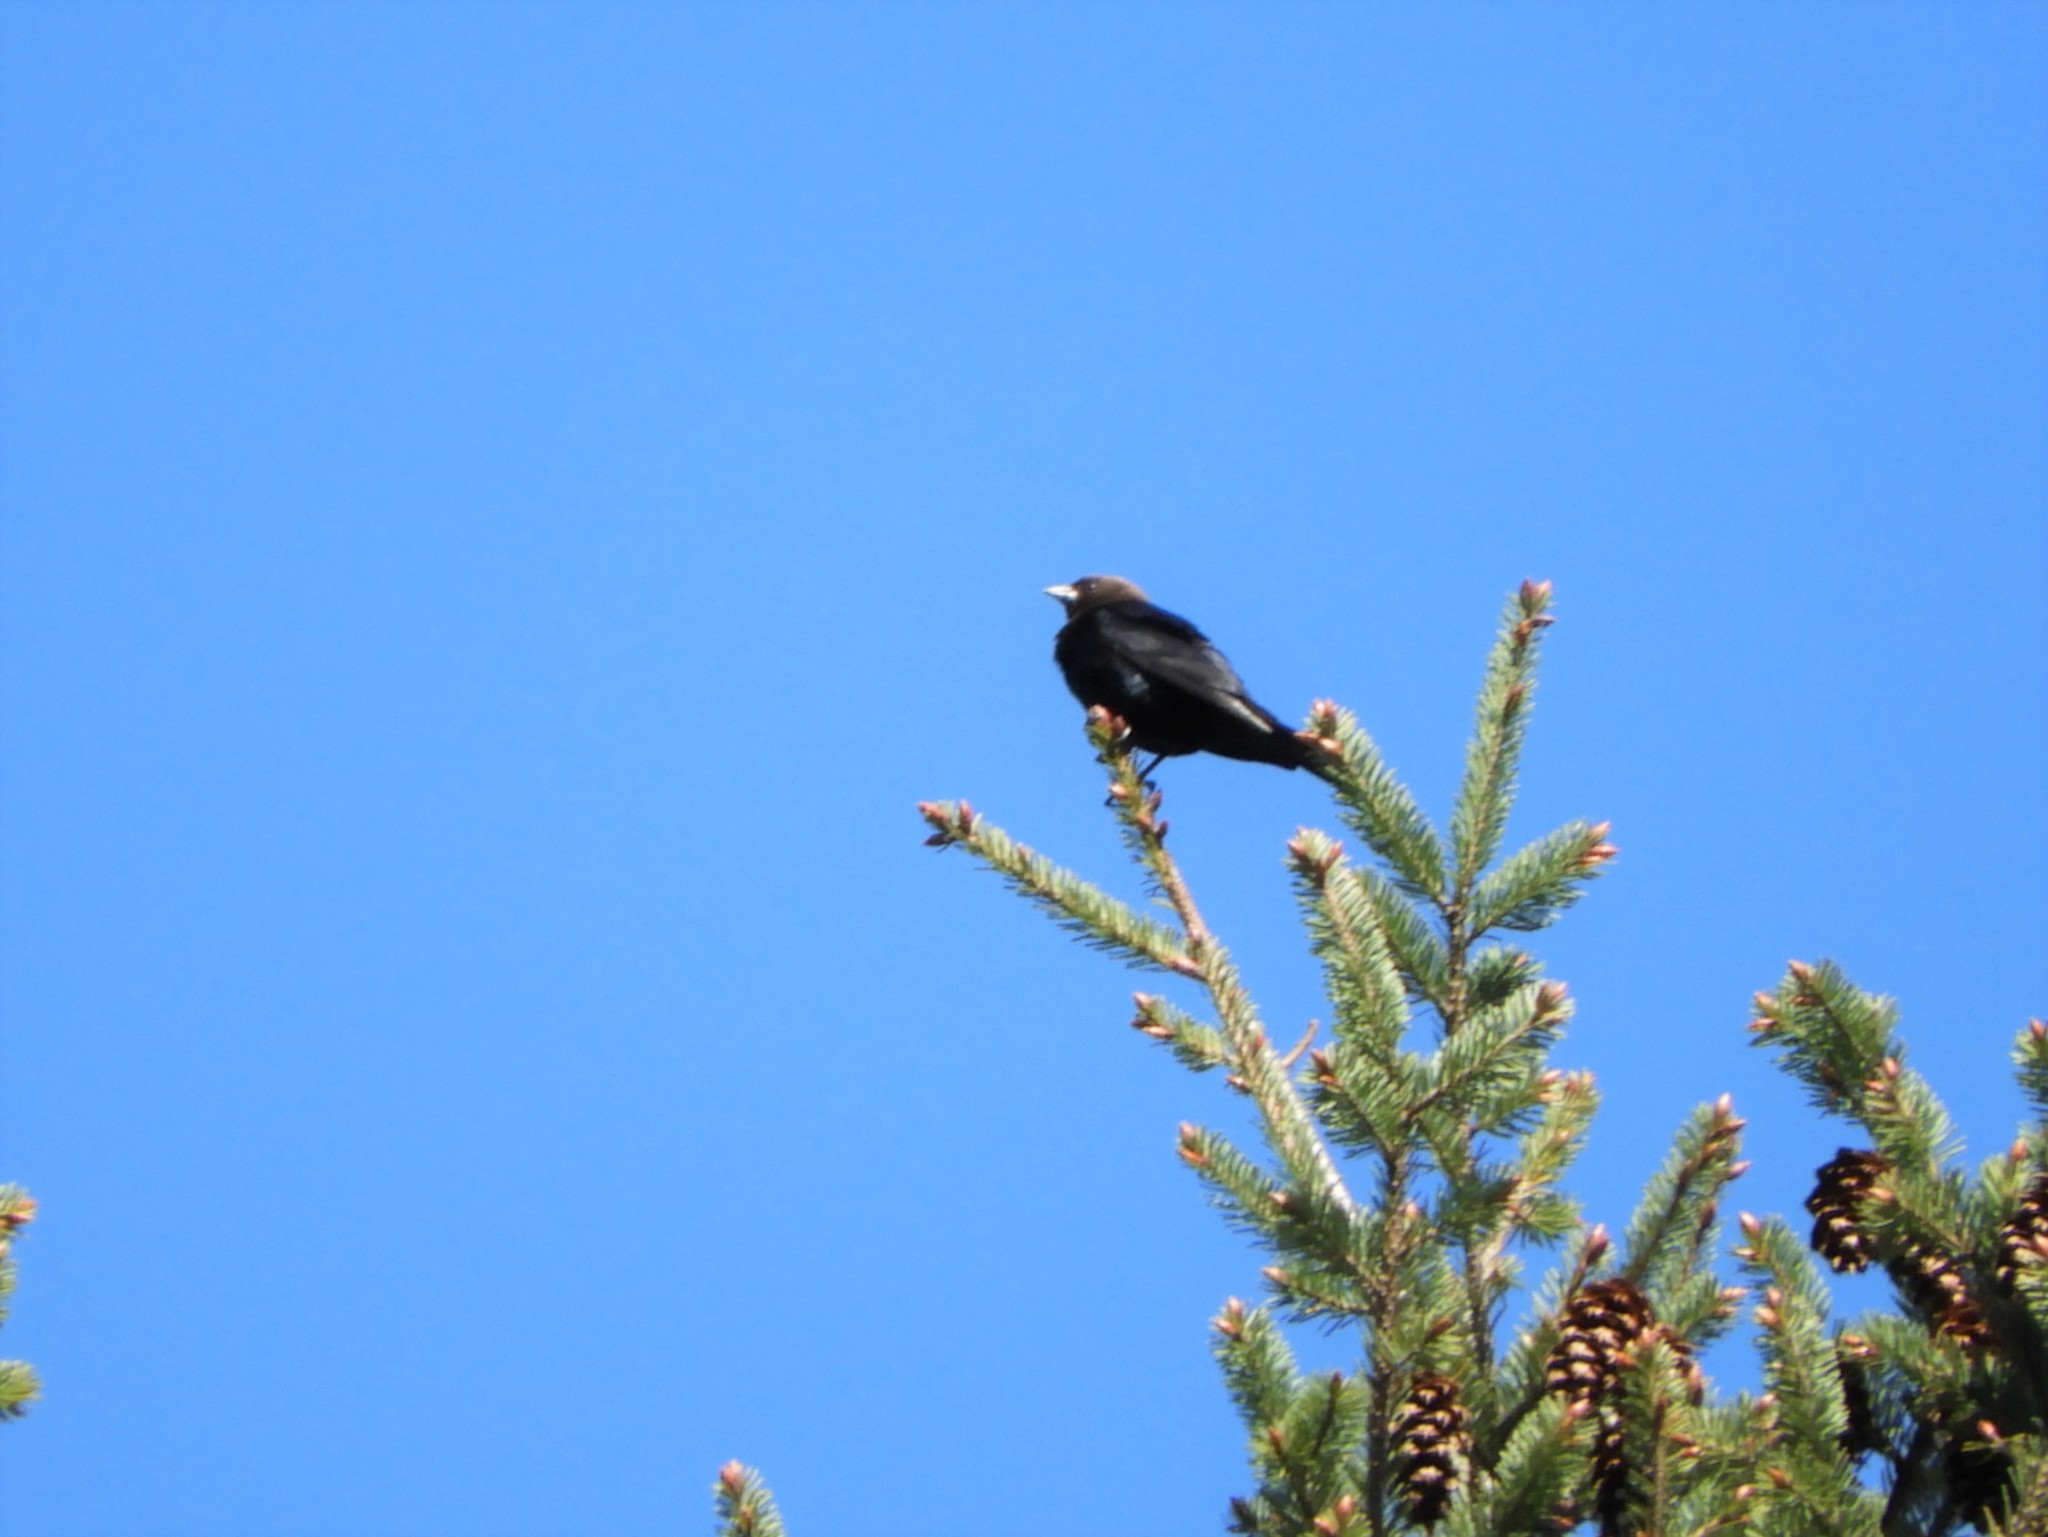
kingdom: Animalia
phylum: Chordata
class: Aves
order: Passeriformes
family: Icteridae
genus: Molothrus
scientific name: Molothrus ater
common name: Brown-headed cowbird
